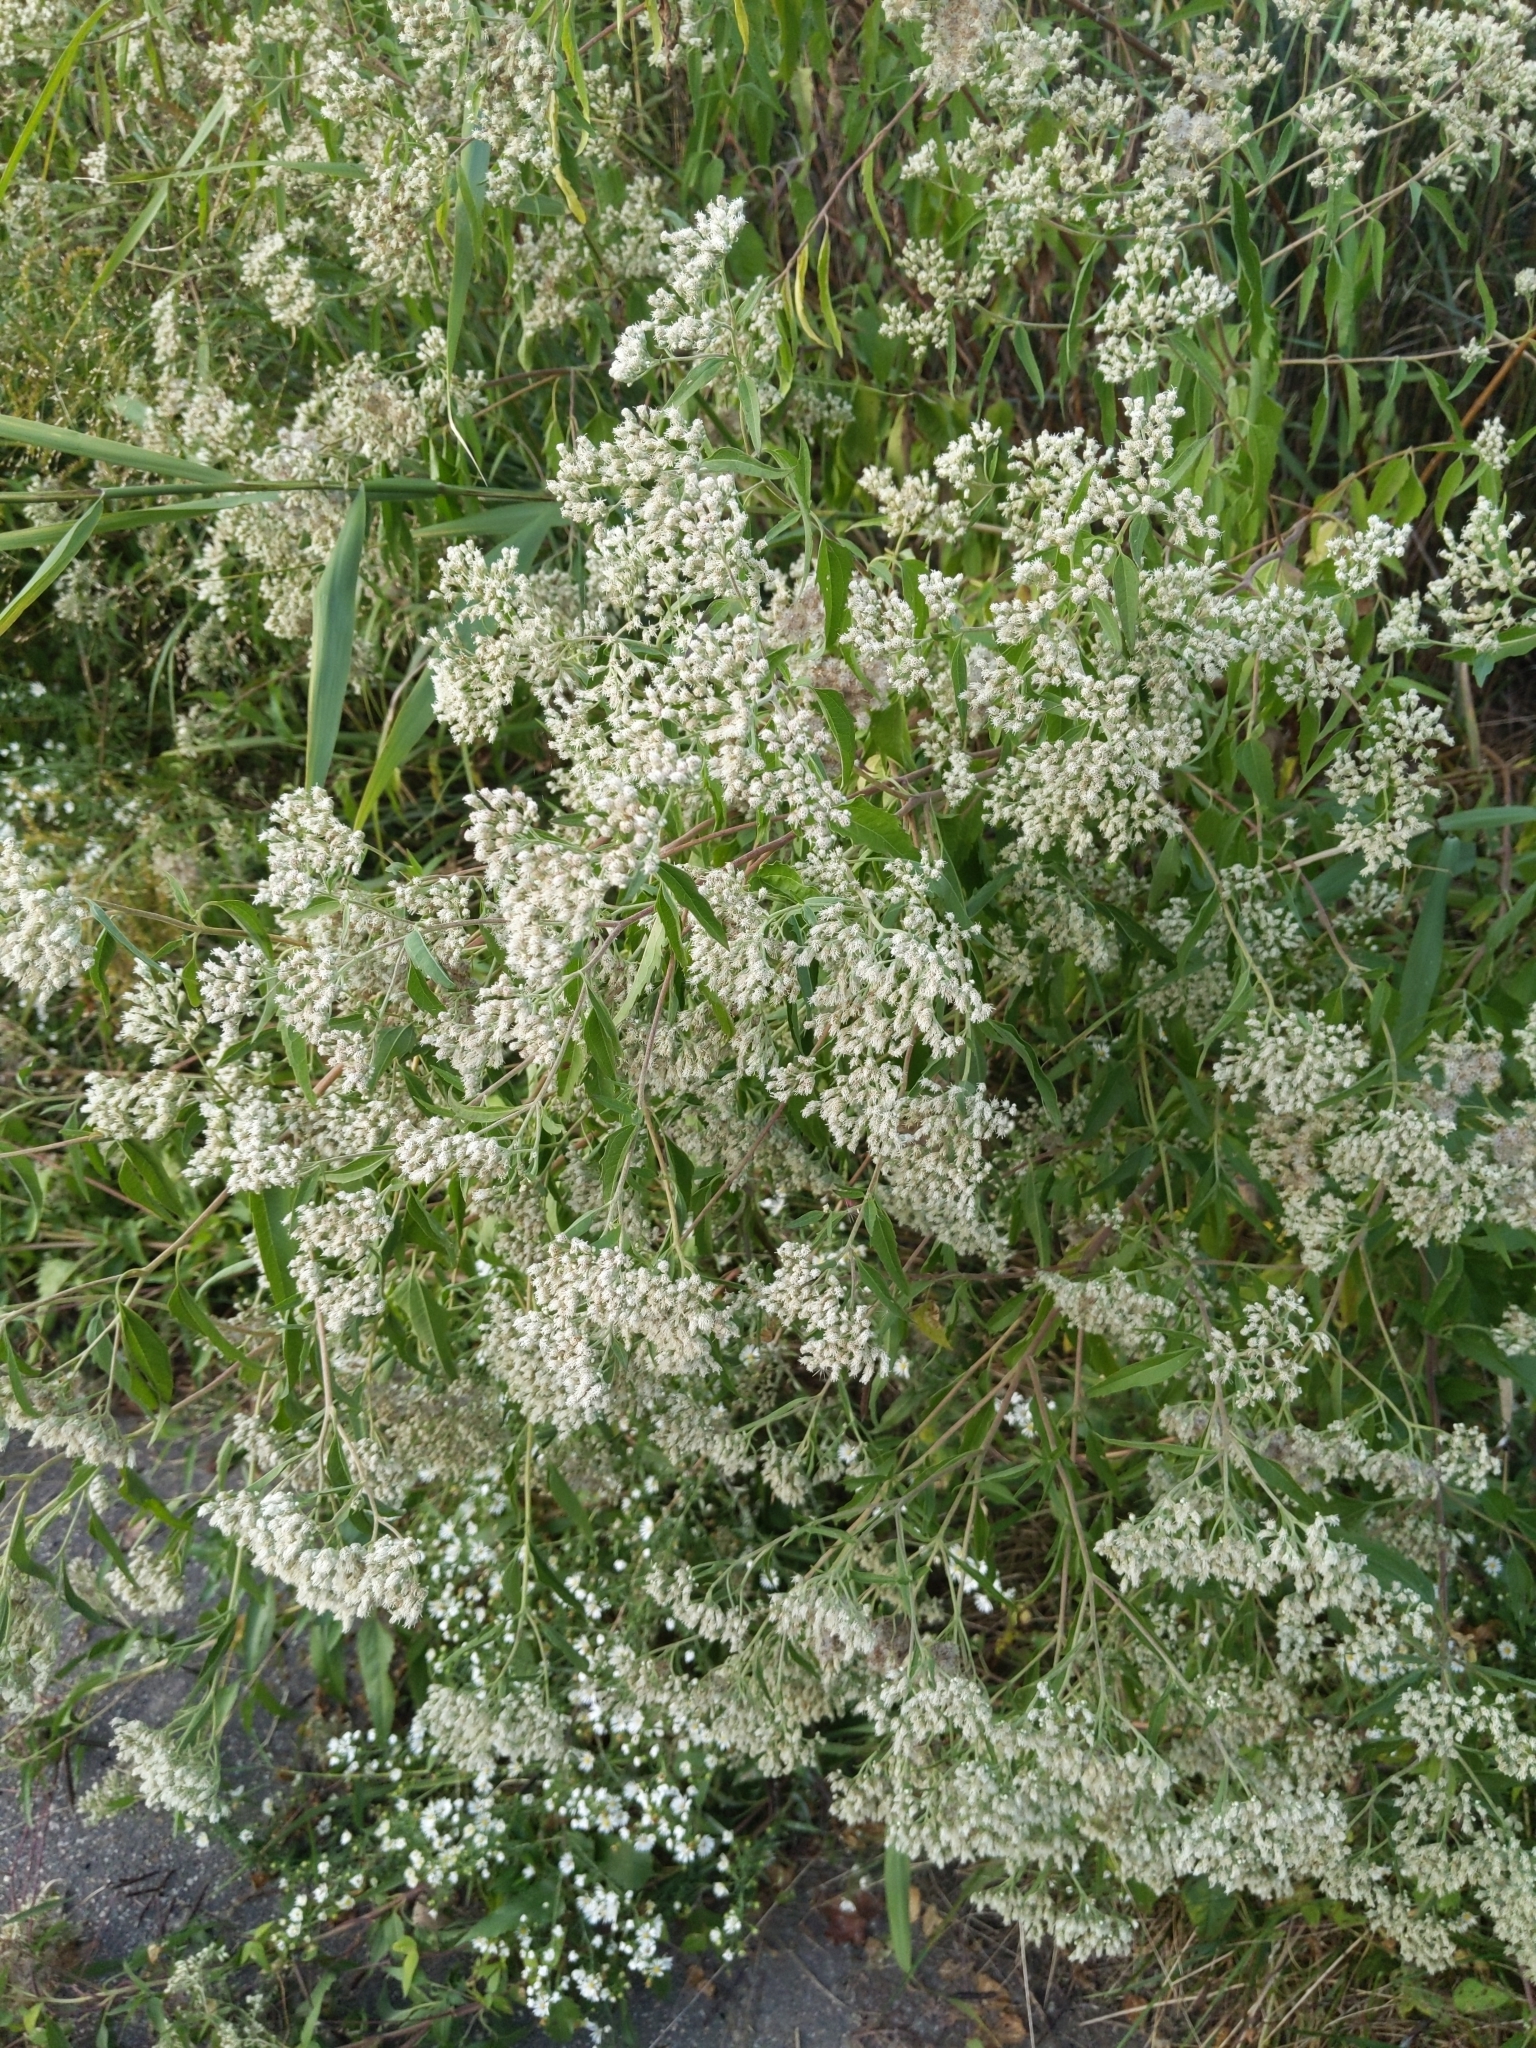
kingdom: Plantae
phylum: Tracheophyta
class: Magnoliopsida
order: Asterales
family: Asteraceae
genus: Eupatorium
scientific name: Eupatorium serotinum
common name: Late boneset
